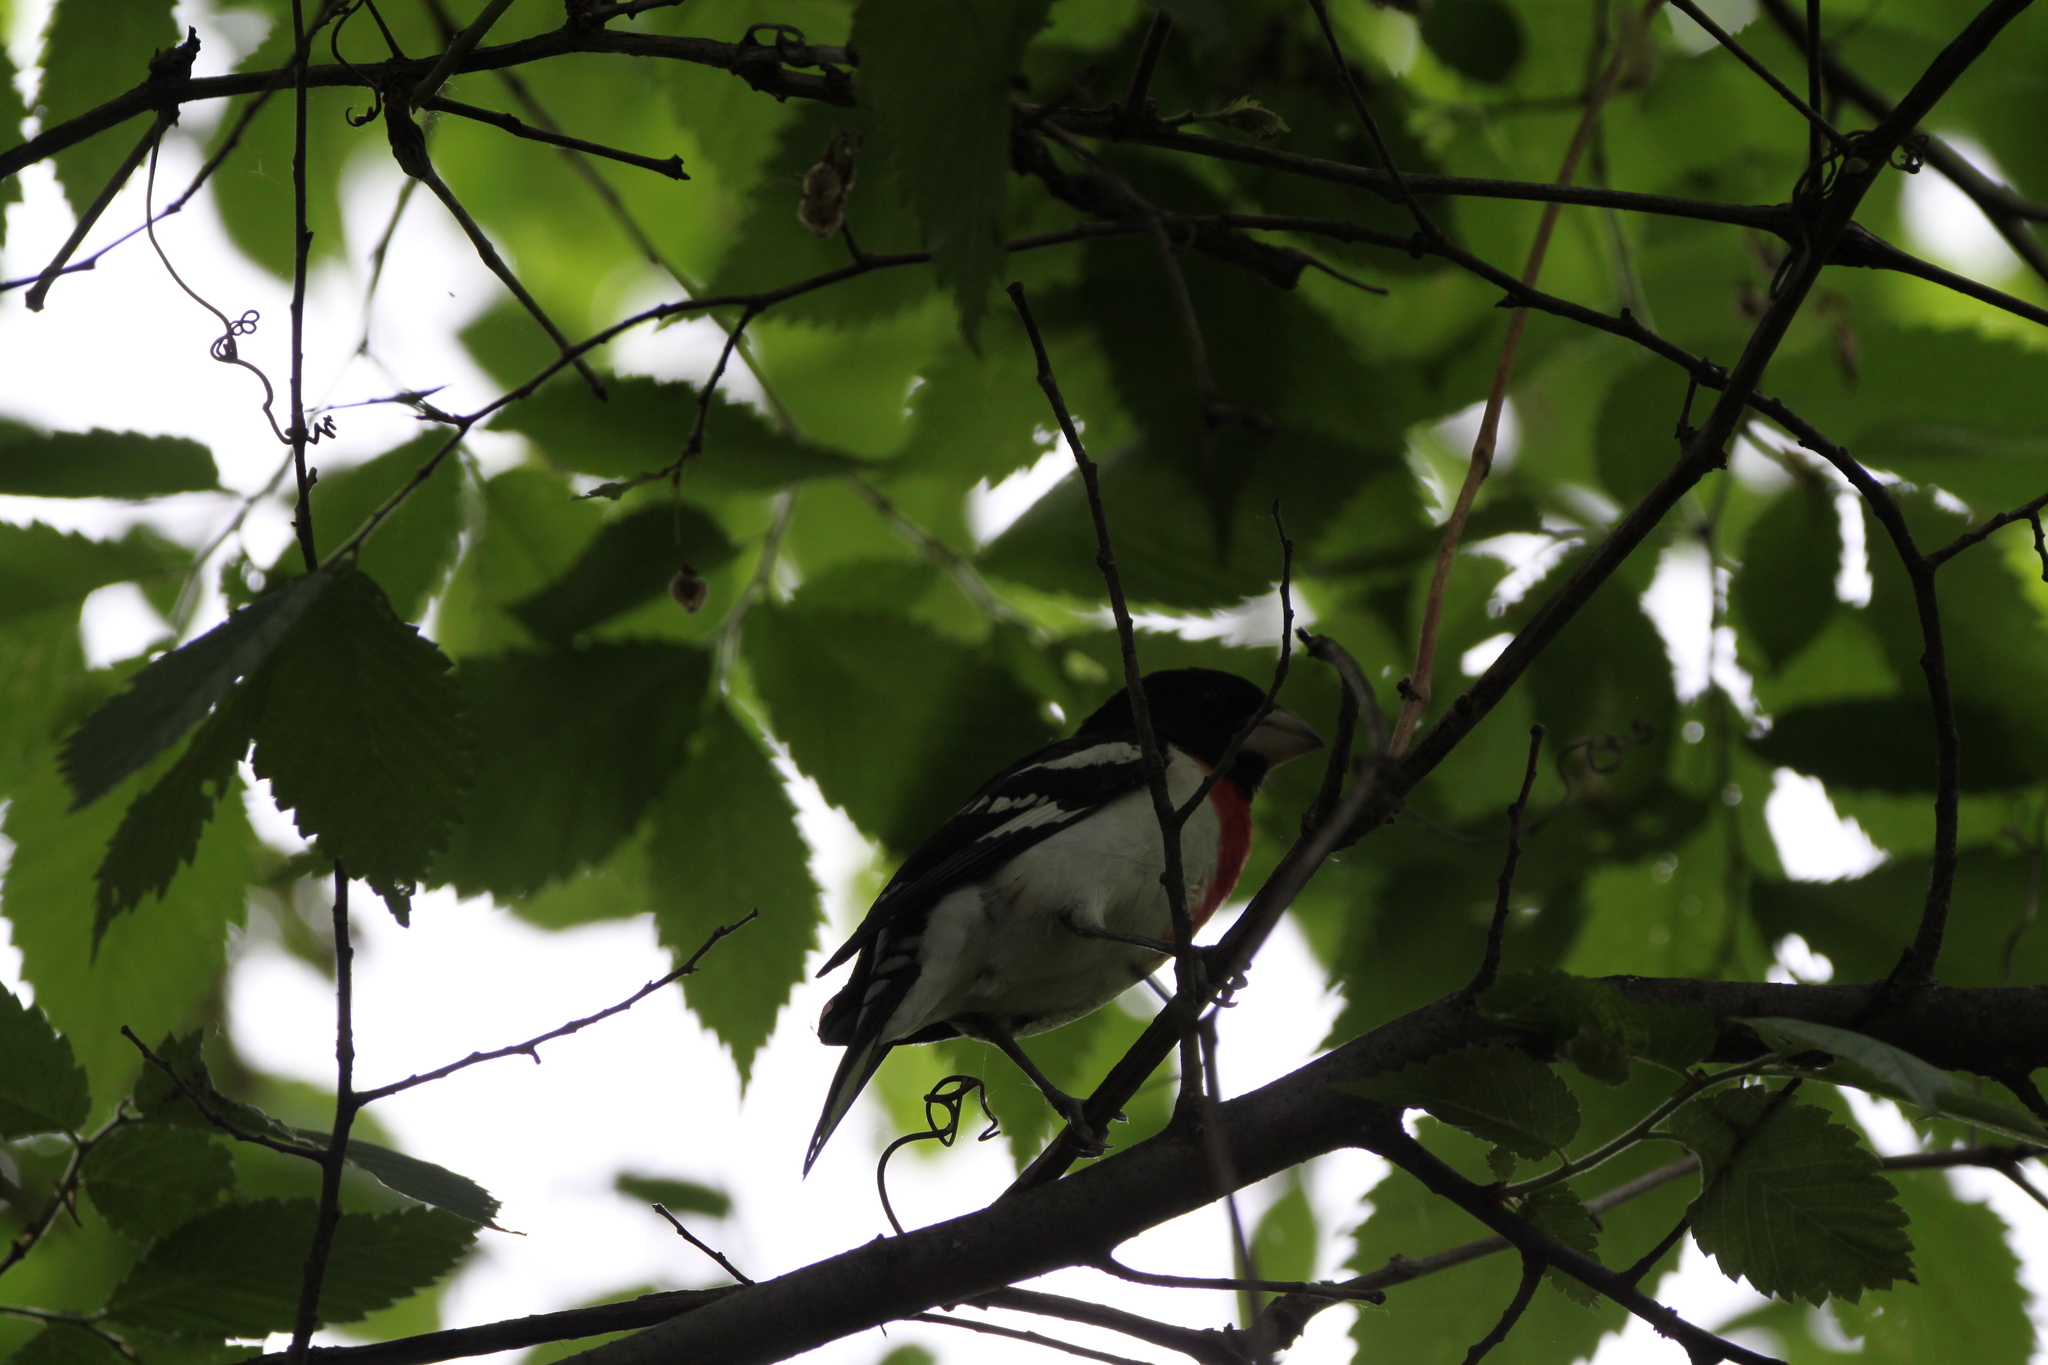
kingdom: Animalia
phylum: Chordata
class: Aves
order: Passeriformes
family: Cardinalidae
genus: Pheucticus
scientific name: Pheucticus ludovicianus
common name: Rose-breasted grosbeak
